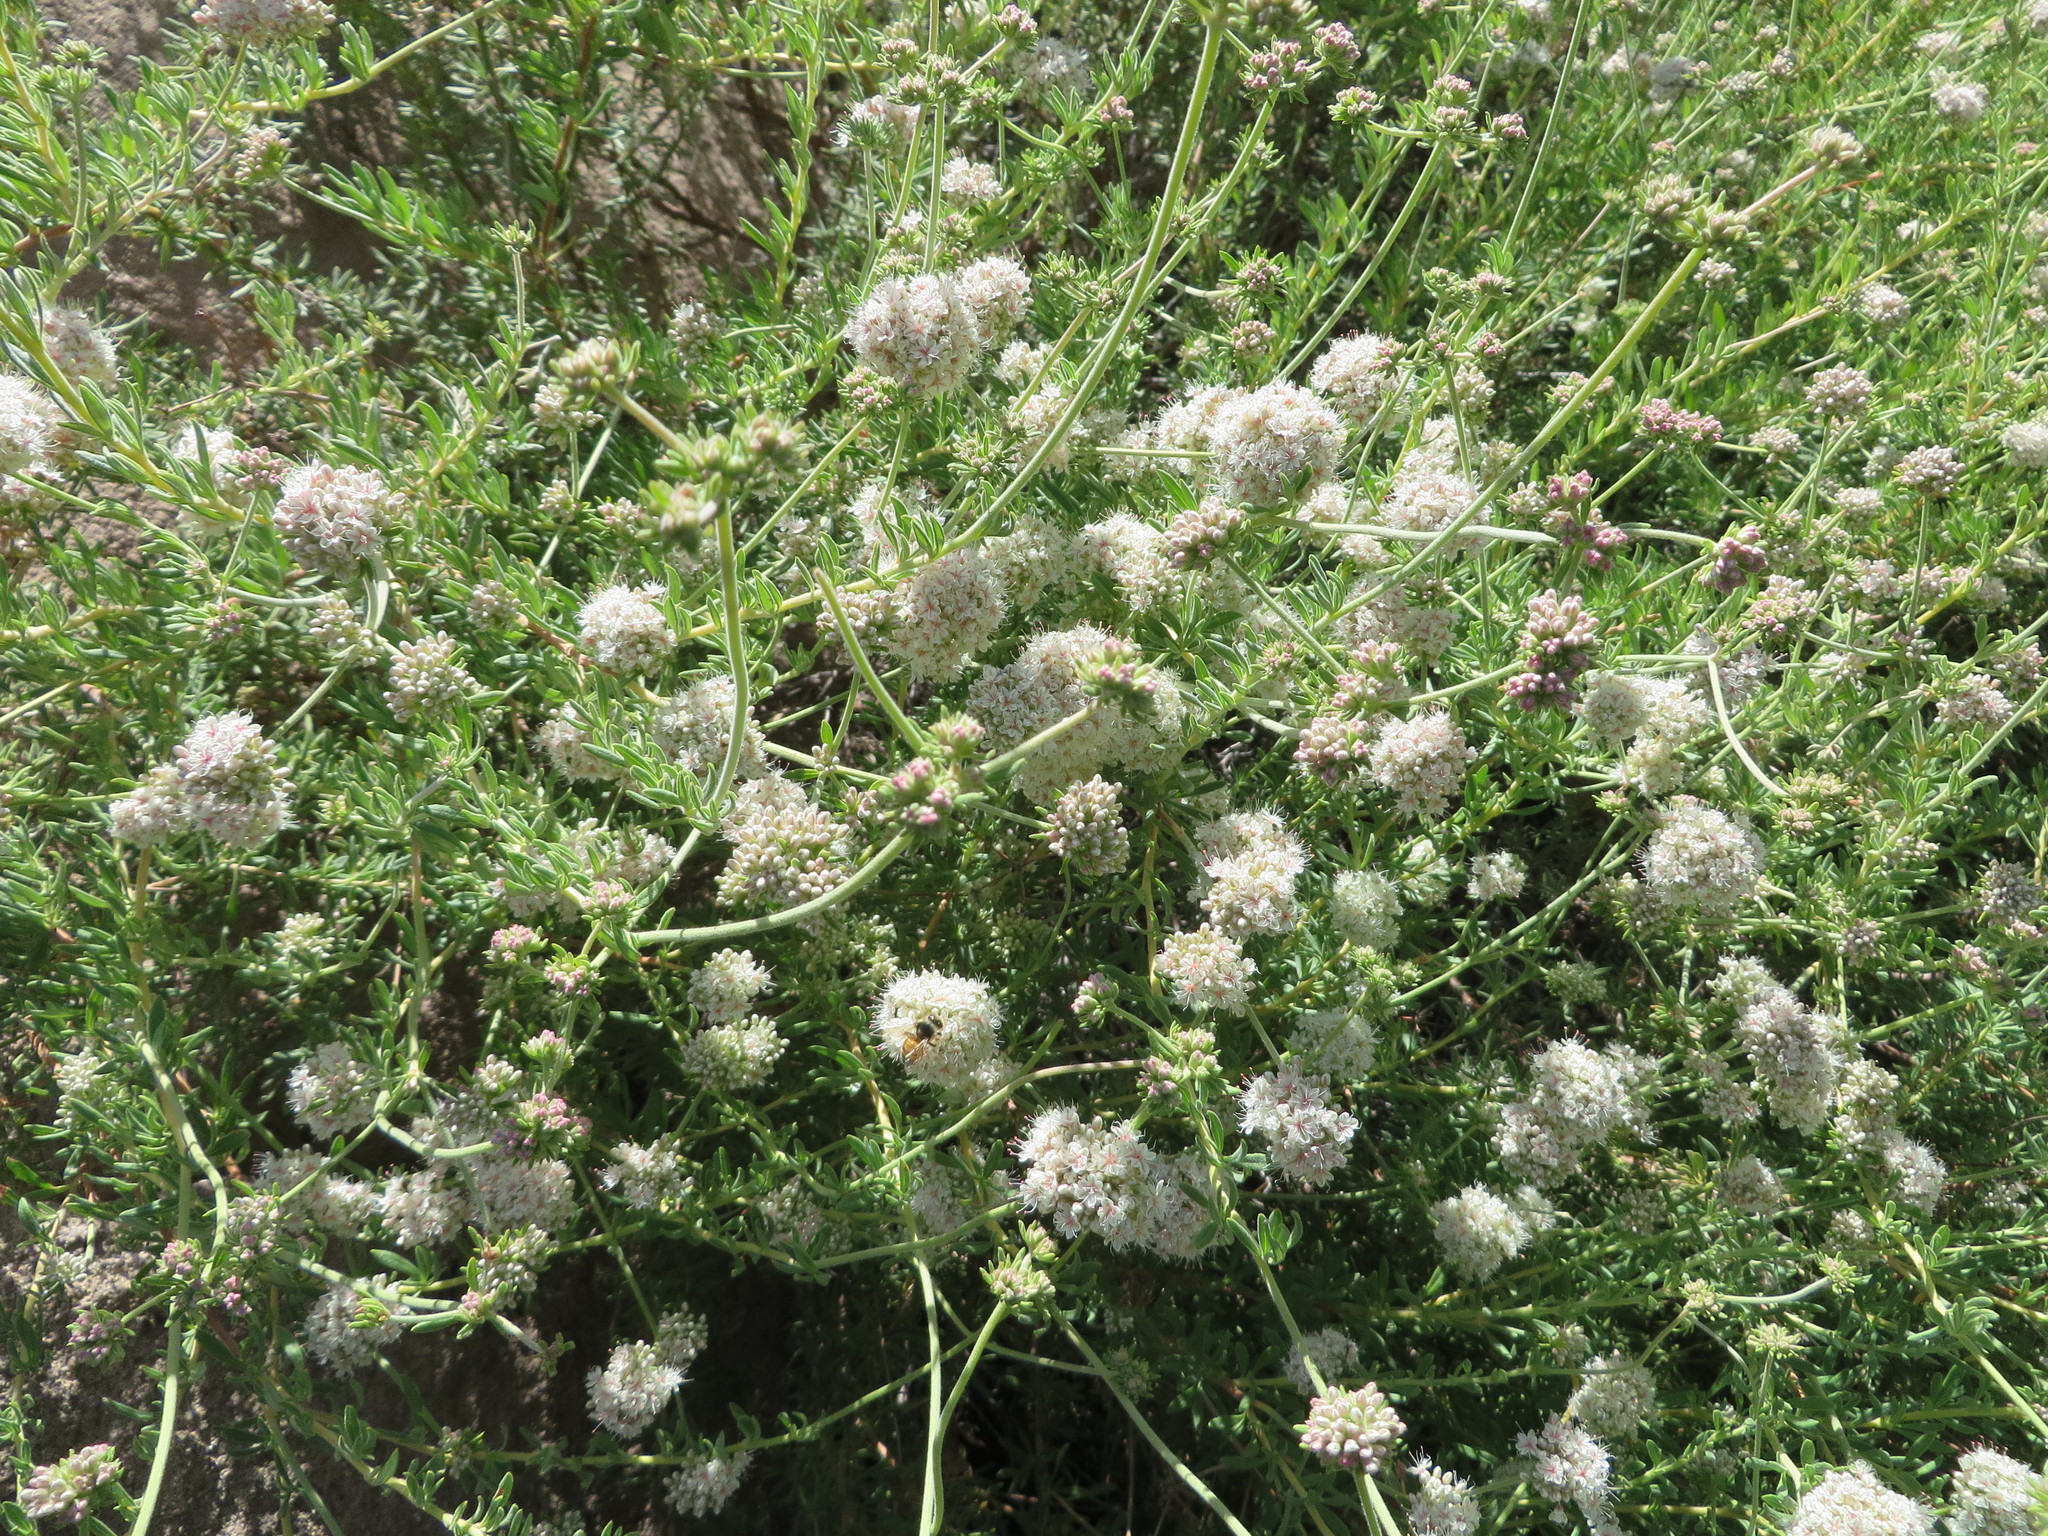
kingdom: Plantae
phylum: Tracheophyta
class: Magnoliopsida
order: Caryophyllales
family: Polygonaceae
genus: Eriogonum
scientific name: Eriogonum fasciculatum
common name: California wild buckwheat
